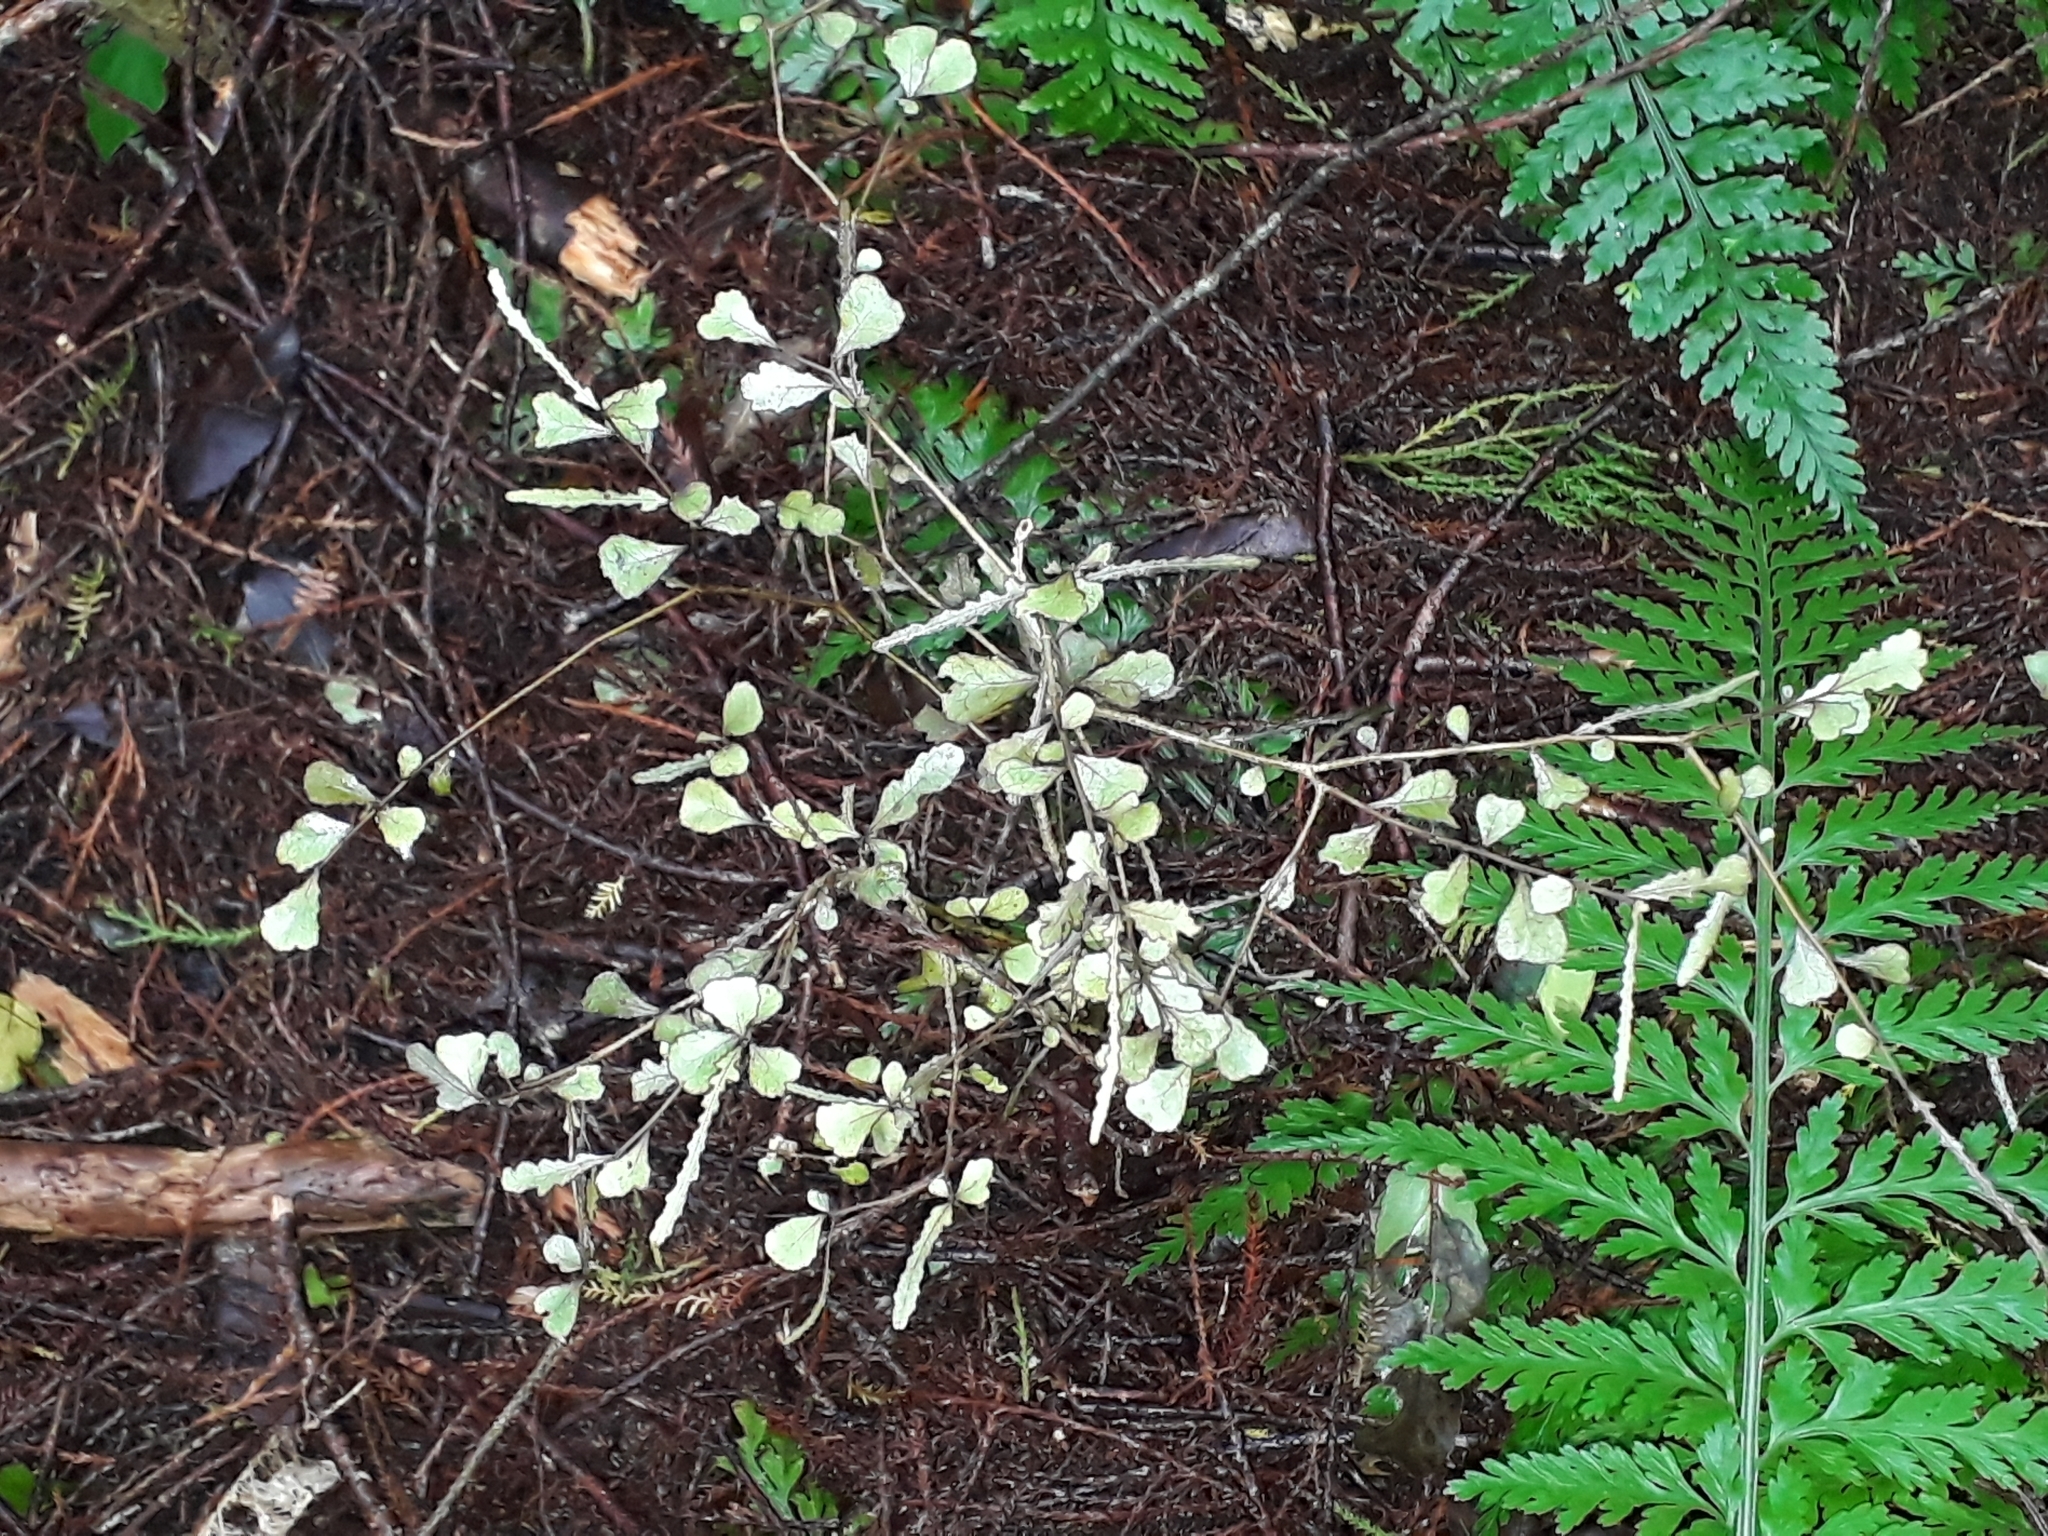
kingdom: Plantae
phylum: Tracheophyta
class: Magnoliopsida
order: Oxalidales
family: Elaeocarpaceae
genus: Elaeocarpus
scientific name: Elaeocarpus hookerianus
